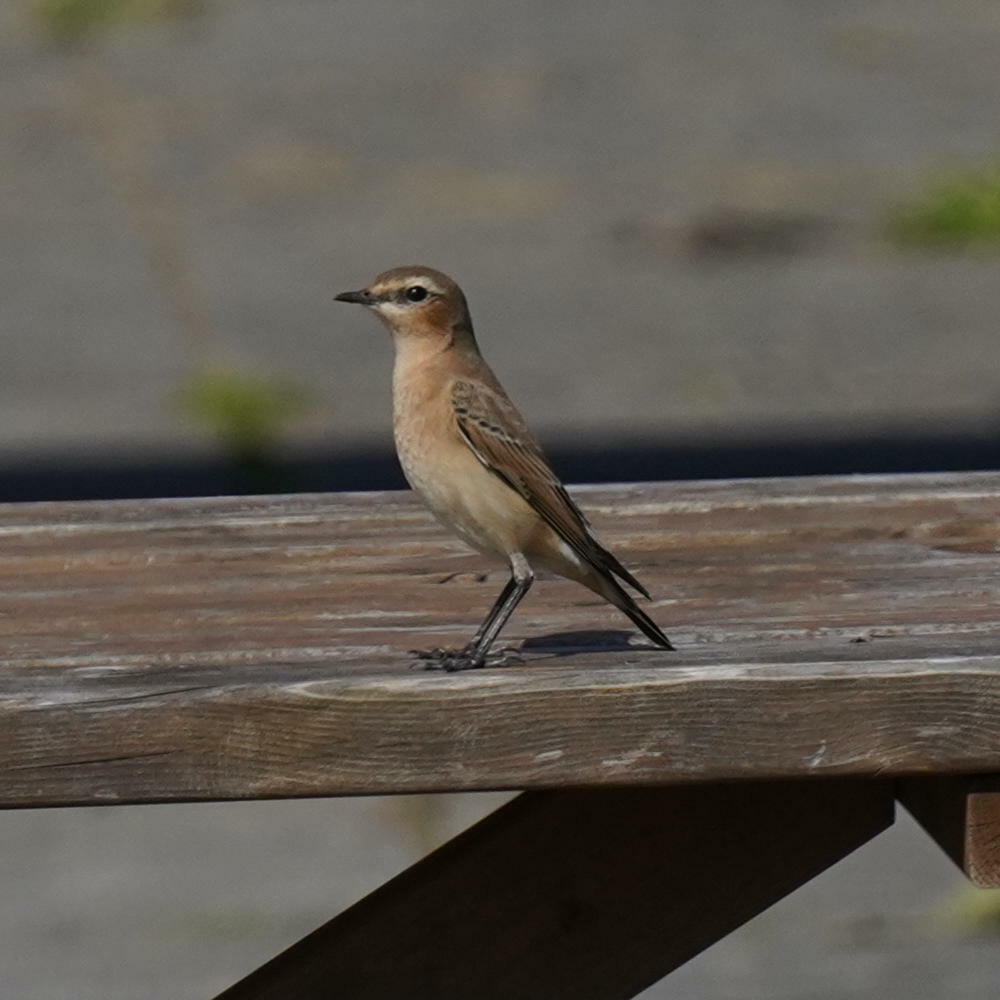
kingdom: Animalia
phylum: Chordata
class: Aves
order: Passeriformes
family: Muscicapidae
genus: Oenanthe
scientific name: Oenanthe oenanthe
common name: Northern wheatear
